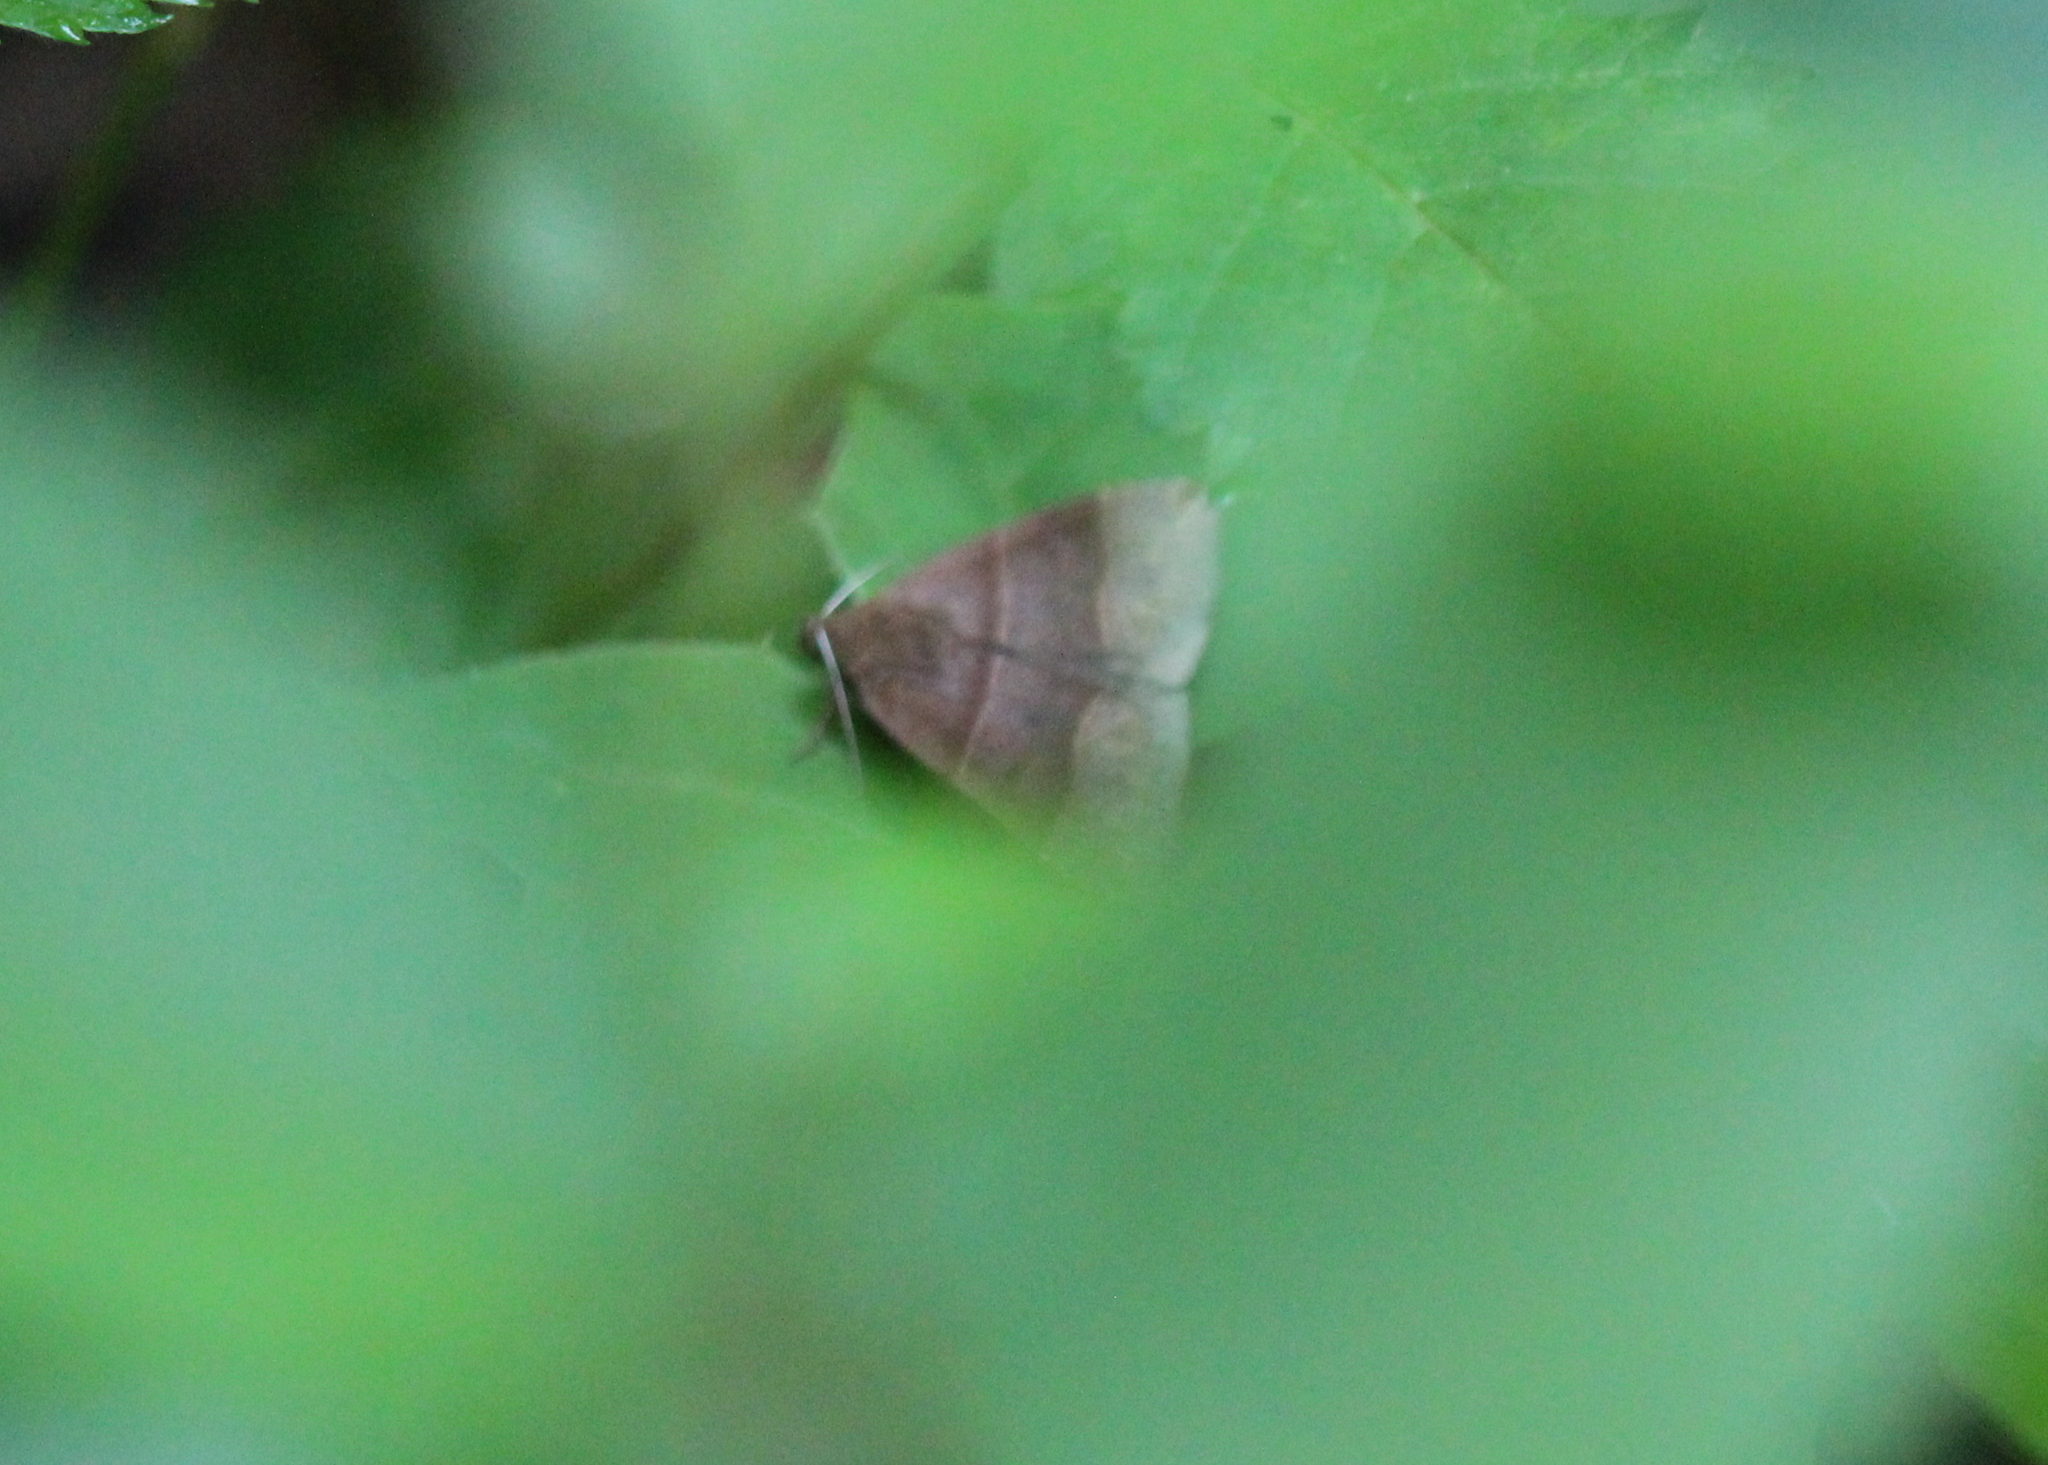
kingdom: Animalia
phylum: Arthropoda
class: Insecta
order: Lepidoptera
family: Erebidae
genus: Parallelia
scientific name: Parallelia bistriaris
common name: Maple looper moth
